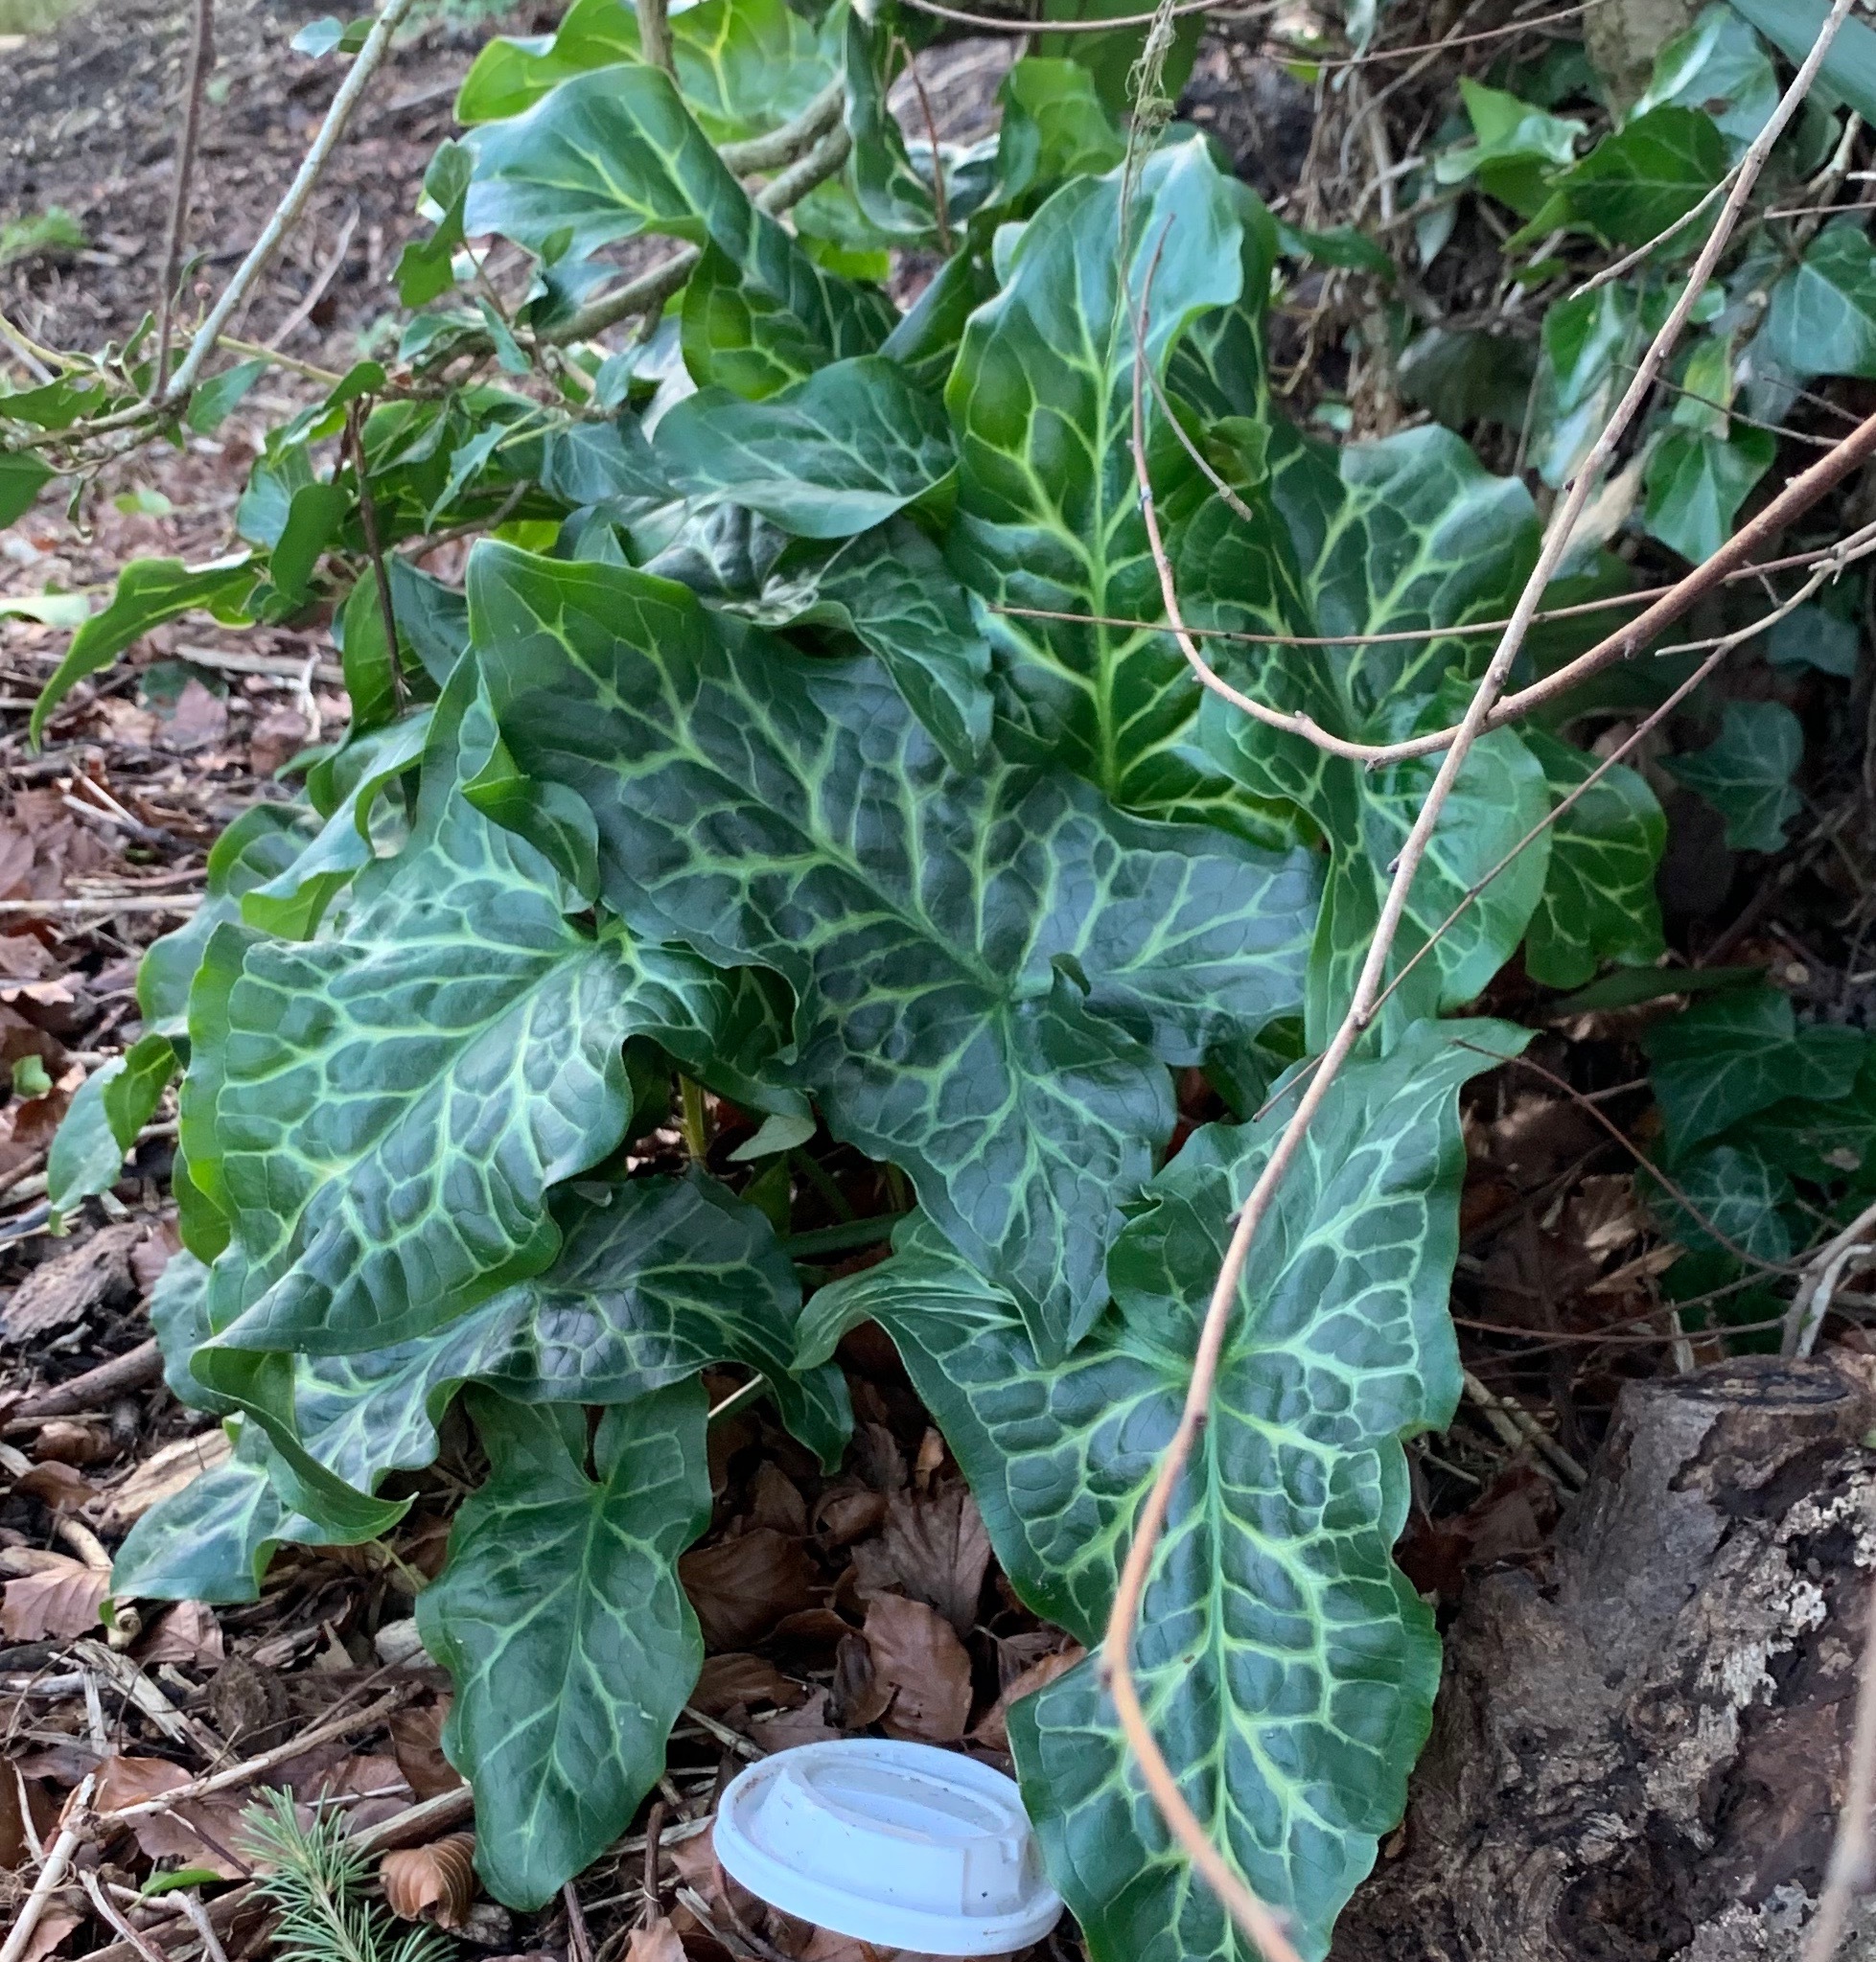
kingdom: Plantae
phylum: Tracheophyta
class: Liliopsida
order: Alismatales
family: Araceae
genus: Arum
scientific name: Arum italicum
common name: Italian lords-and-ladies
